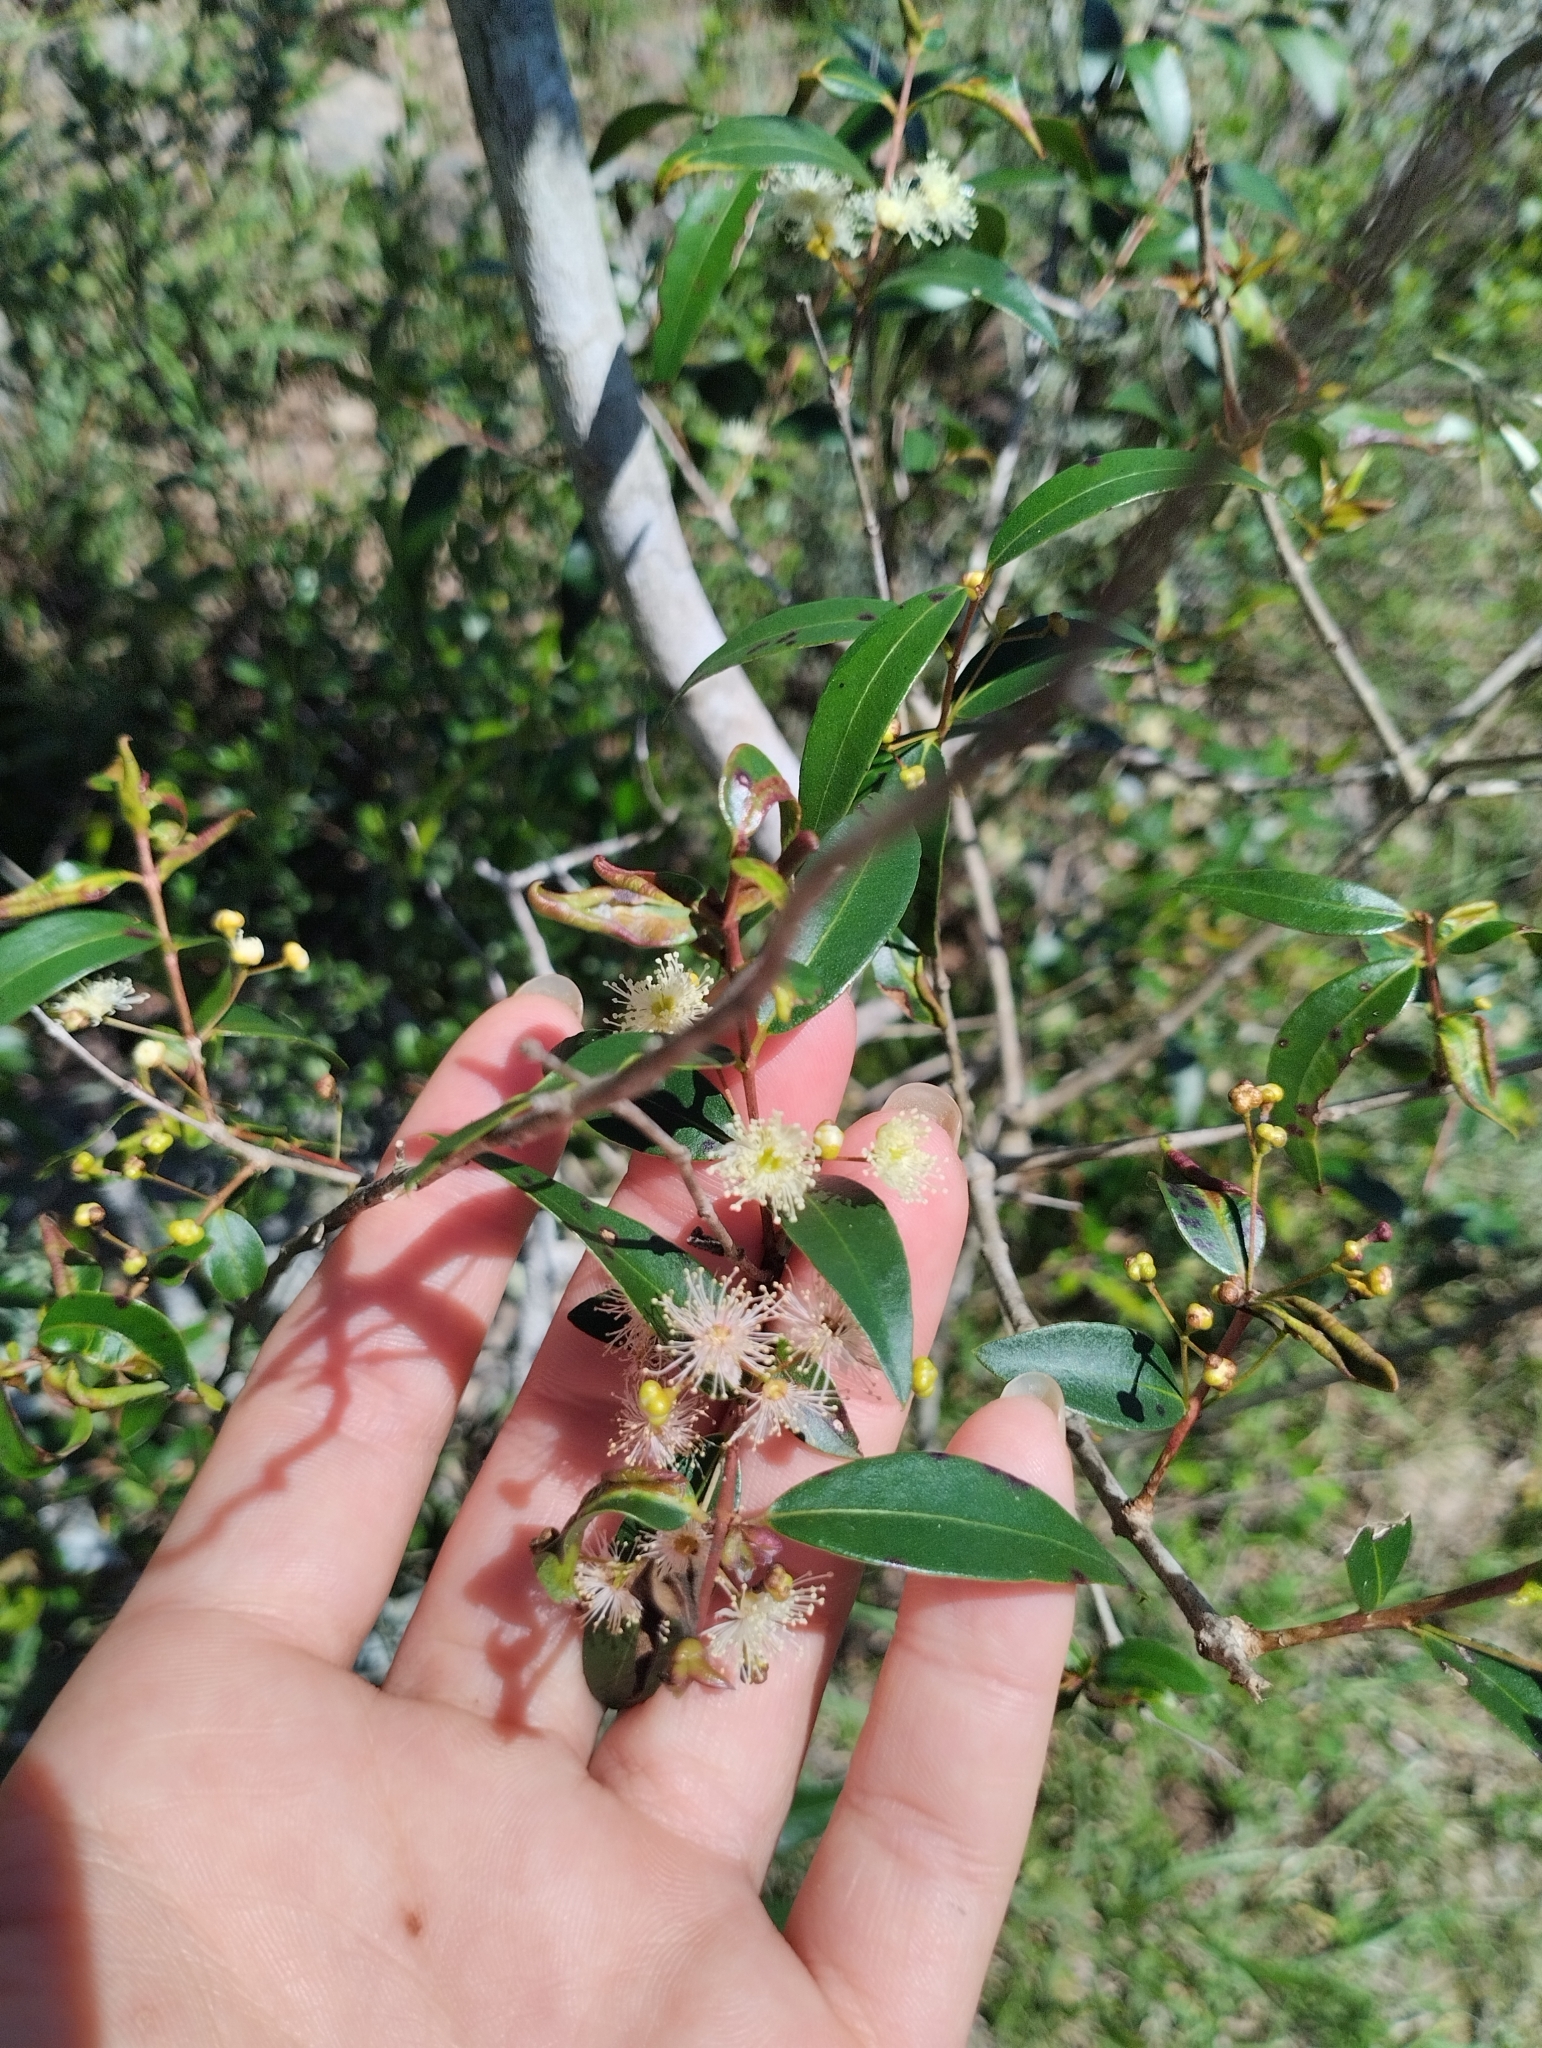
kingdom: Plantae
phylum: Tracheophyta
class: Magnoliopsida
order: Myrtales
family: Myrtaceae
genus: Blepharocalyx
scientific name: Blepharocalyx salicifolius
